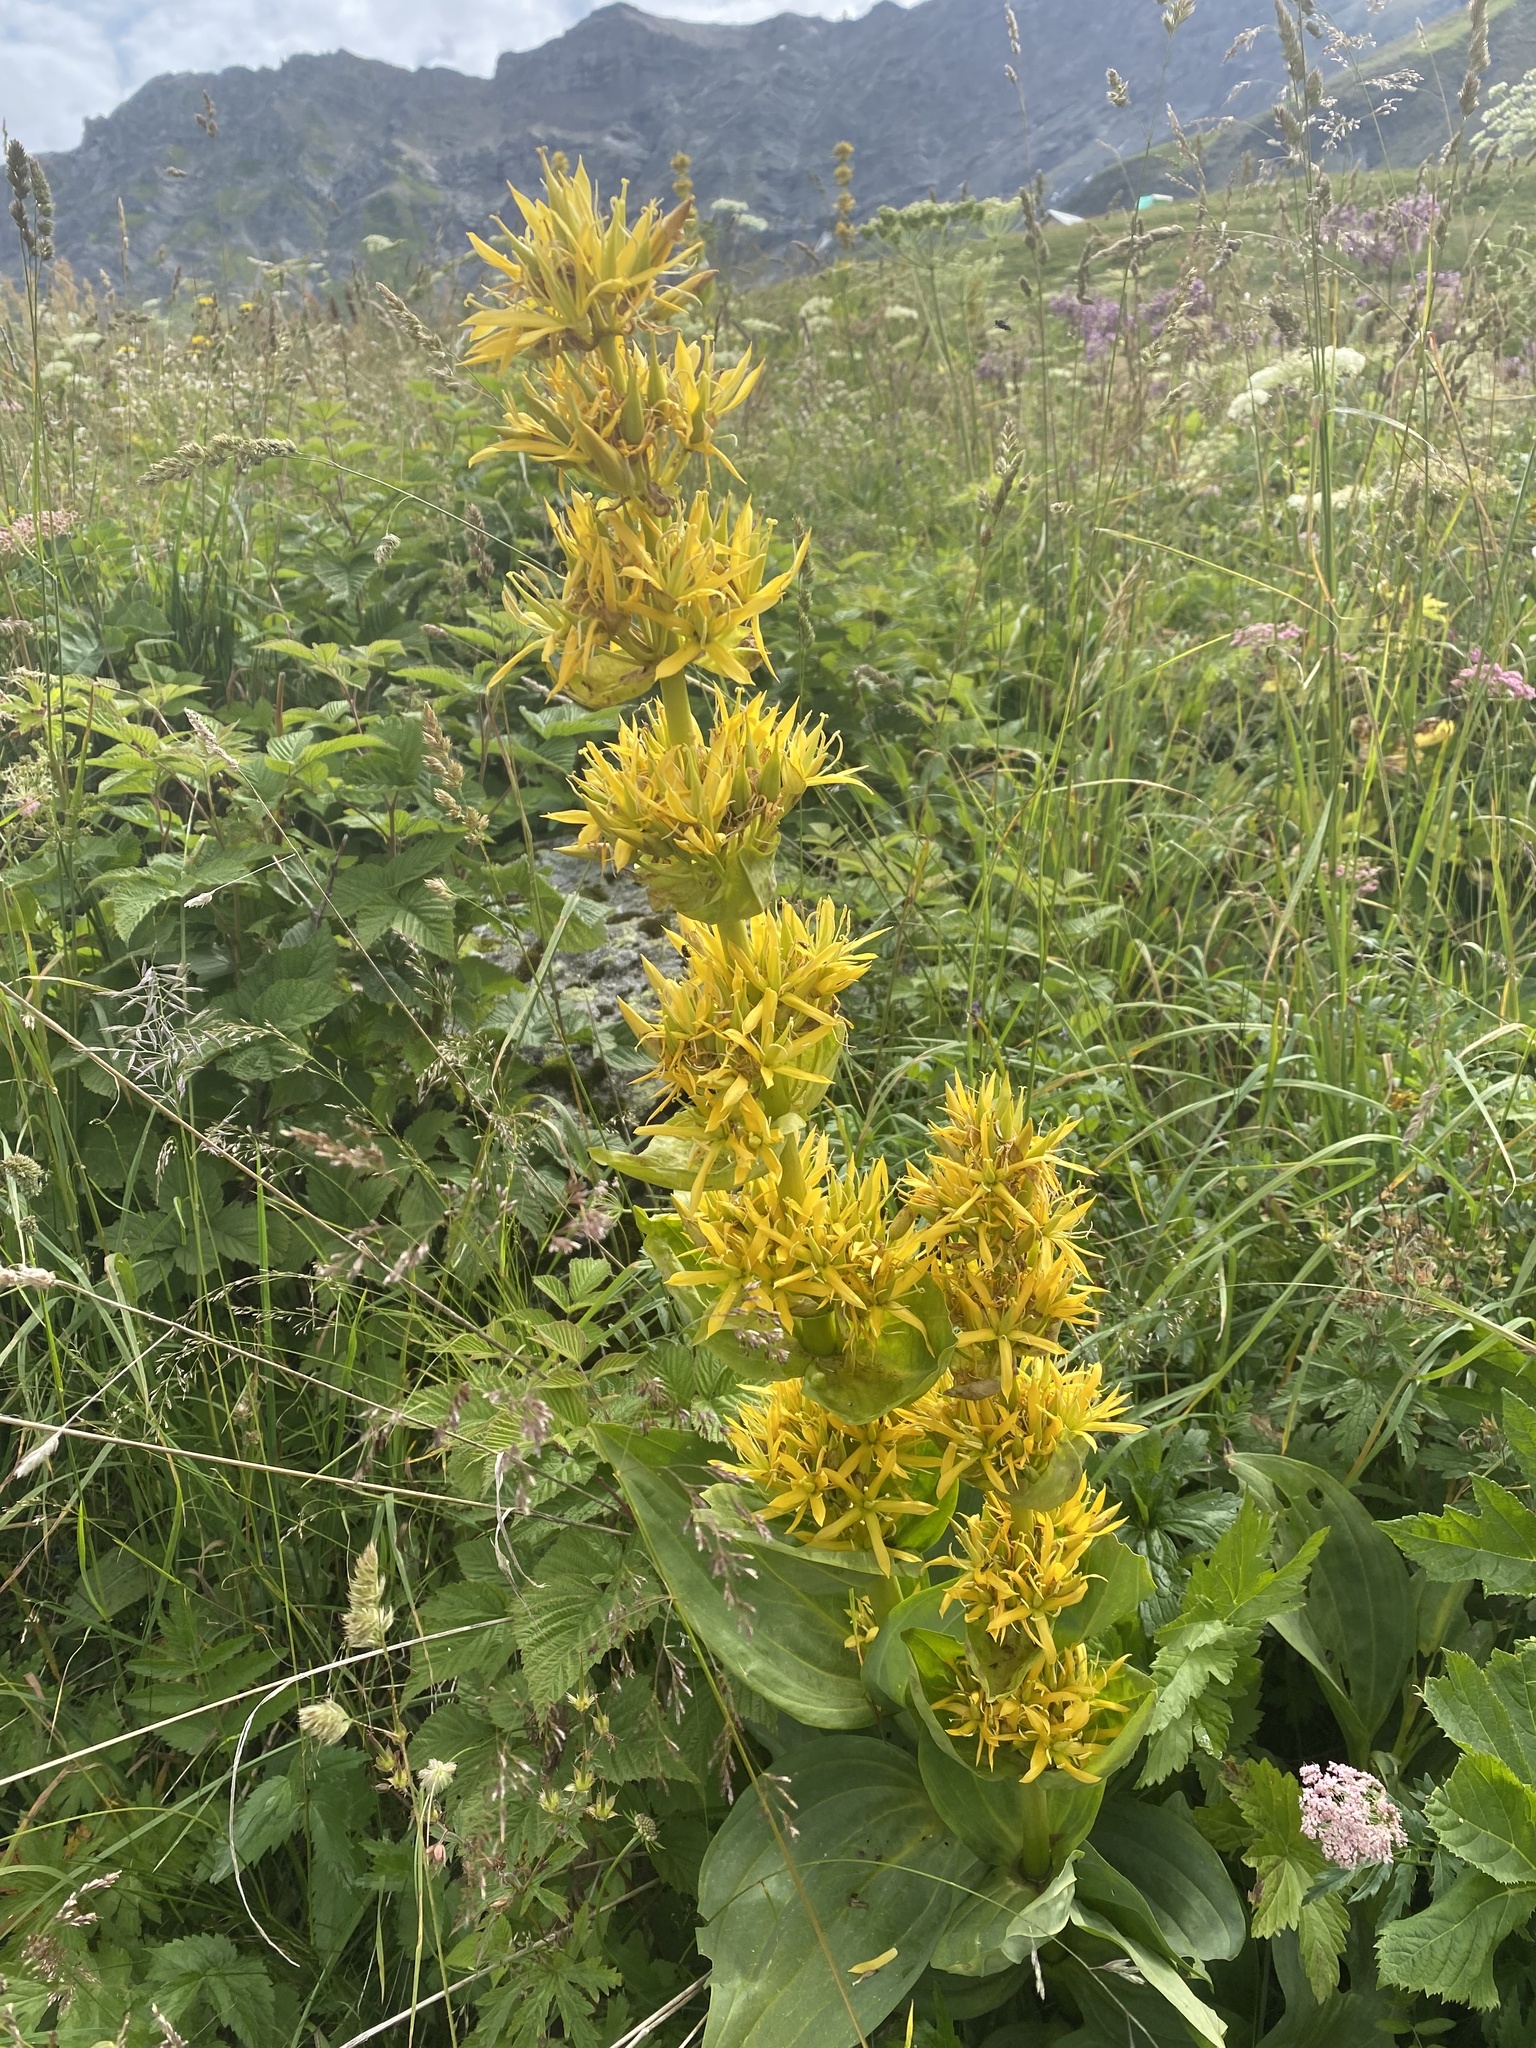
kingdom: Plantae
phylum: Tracheophyta
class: Magnoliopsida
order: Gentianales
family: Gentianaceae
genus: Gentiana
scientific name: Gentiana lutea
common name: Great yellow gentian
